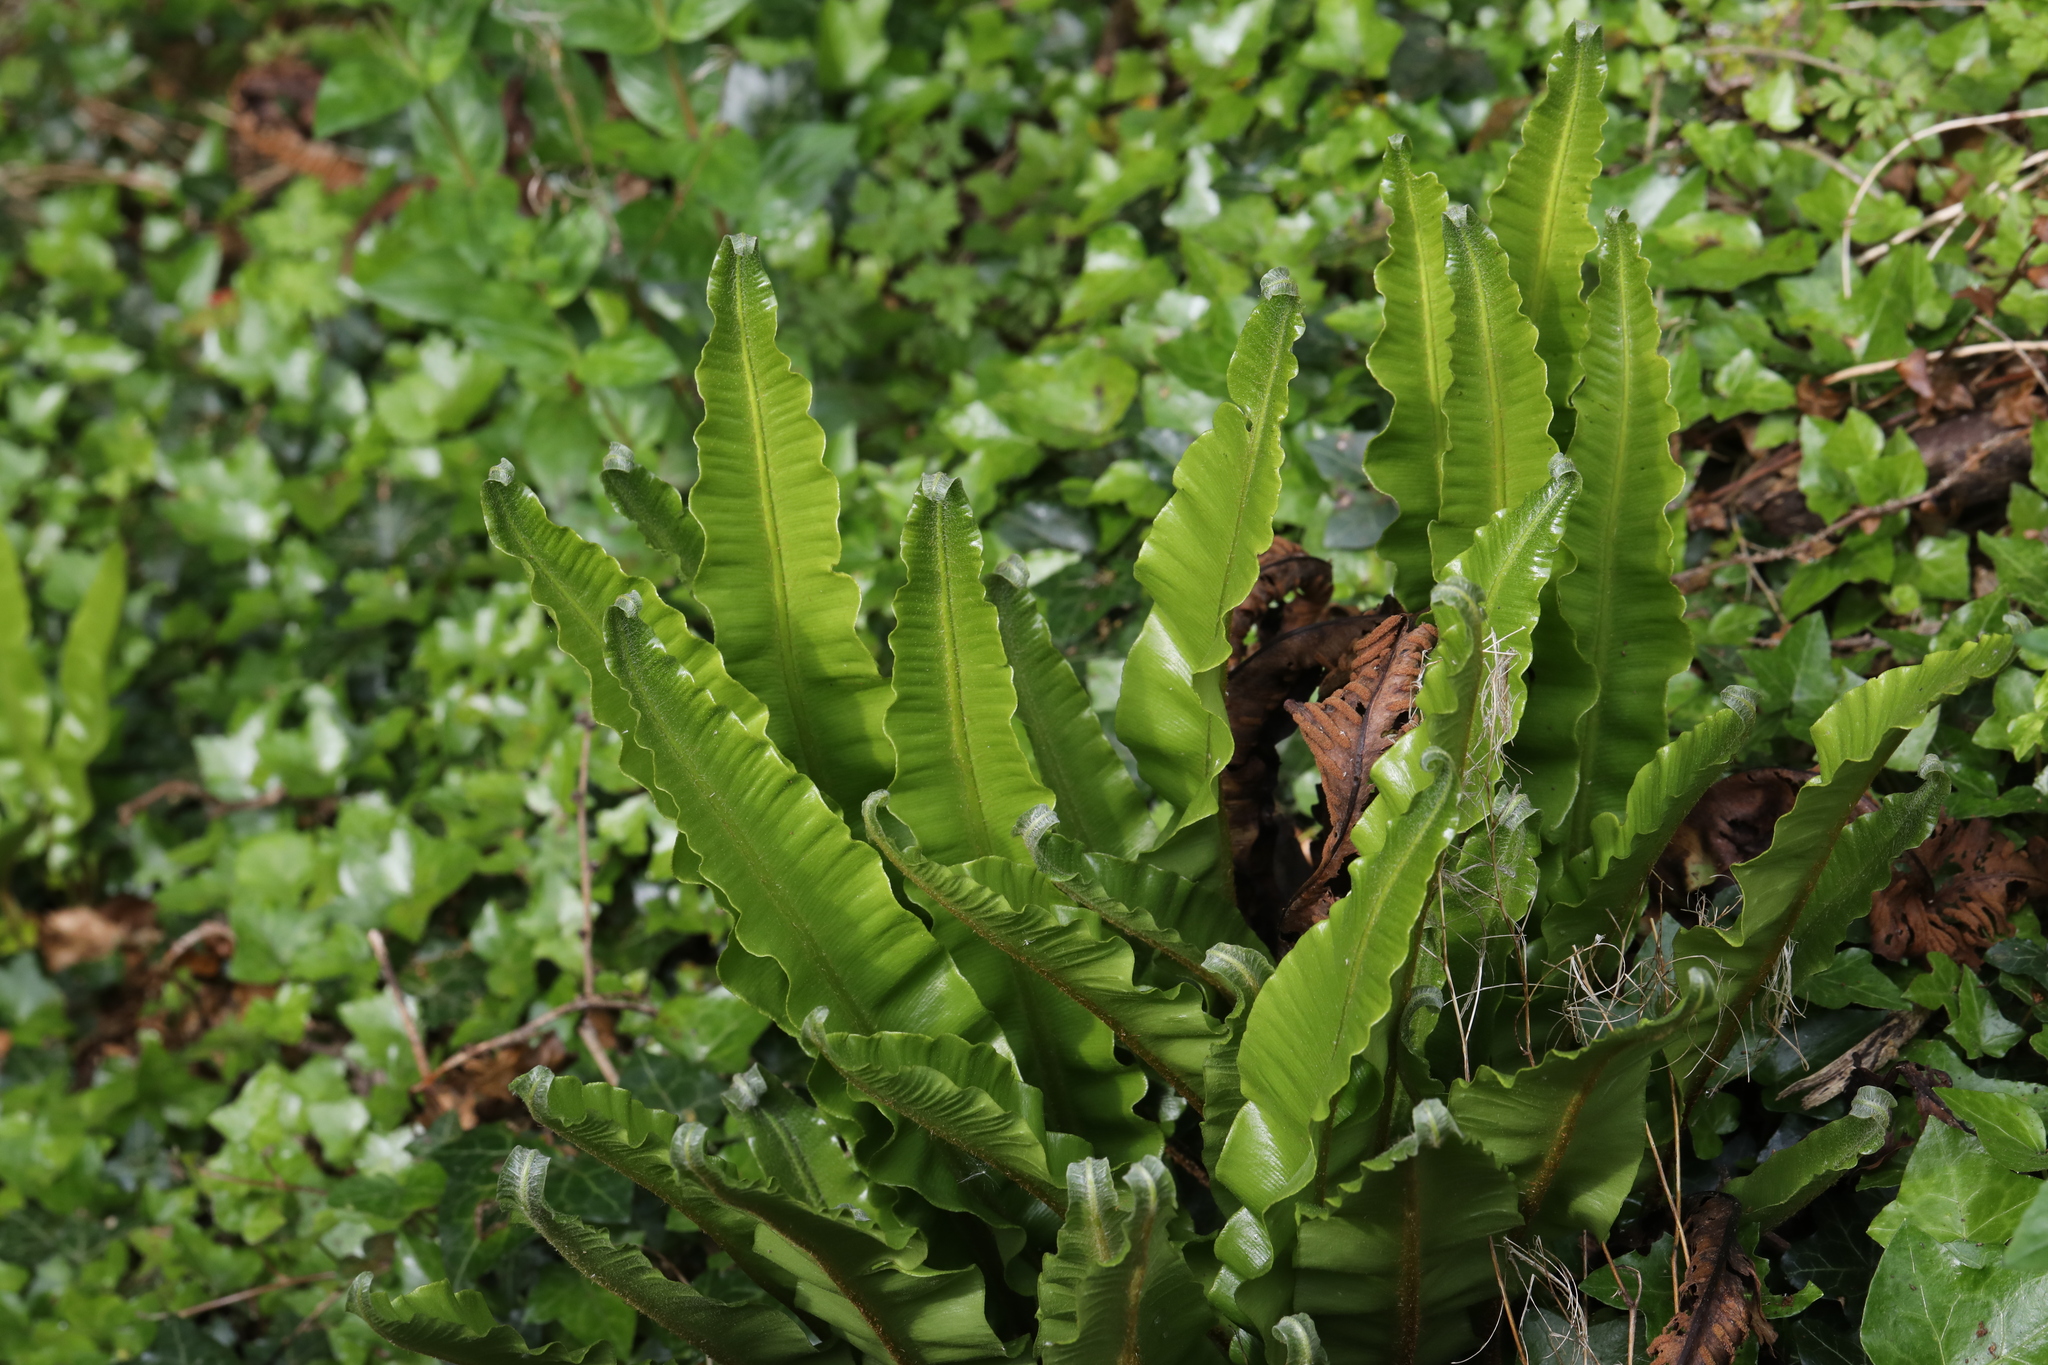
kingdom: Plantae
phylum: Tracheophyta
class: Polypodiopsida
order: Polypodiales
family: Aspleniaceae
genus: Asplenium
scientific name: Asplenium scolopendrium
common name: Hart's-tongue fern
